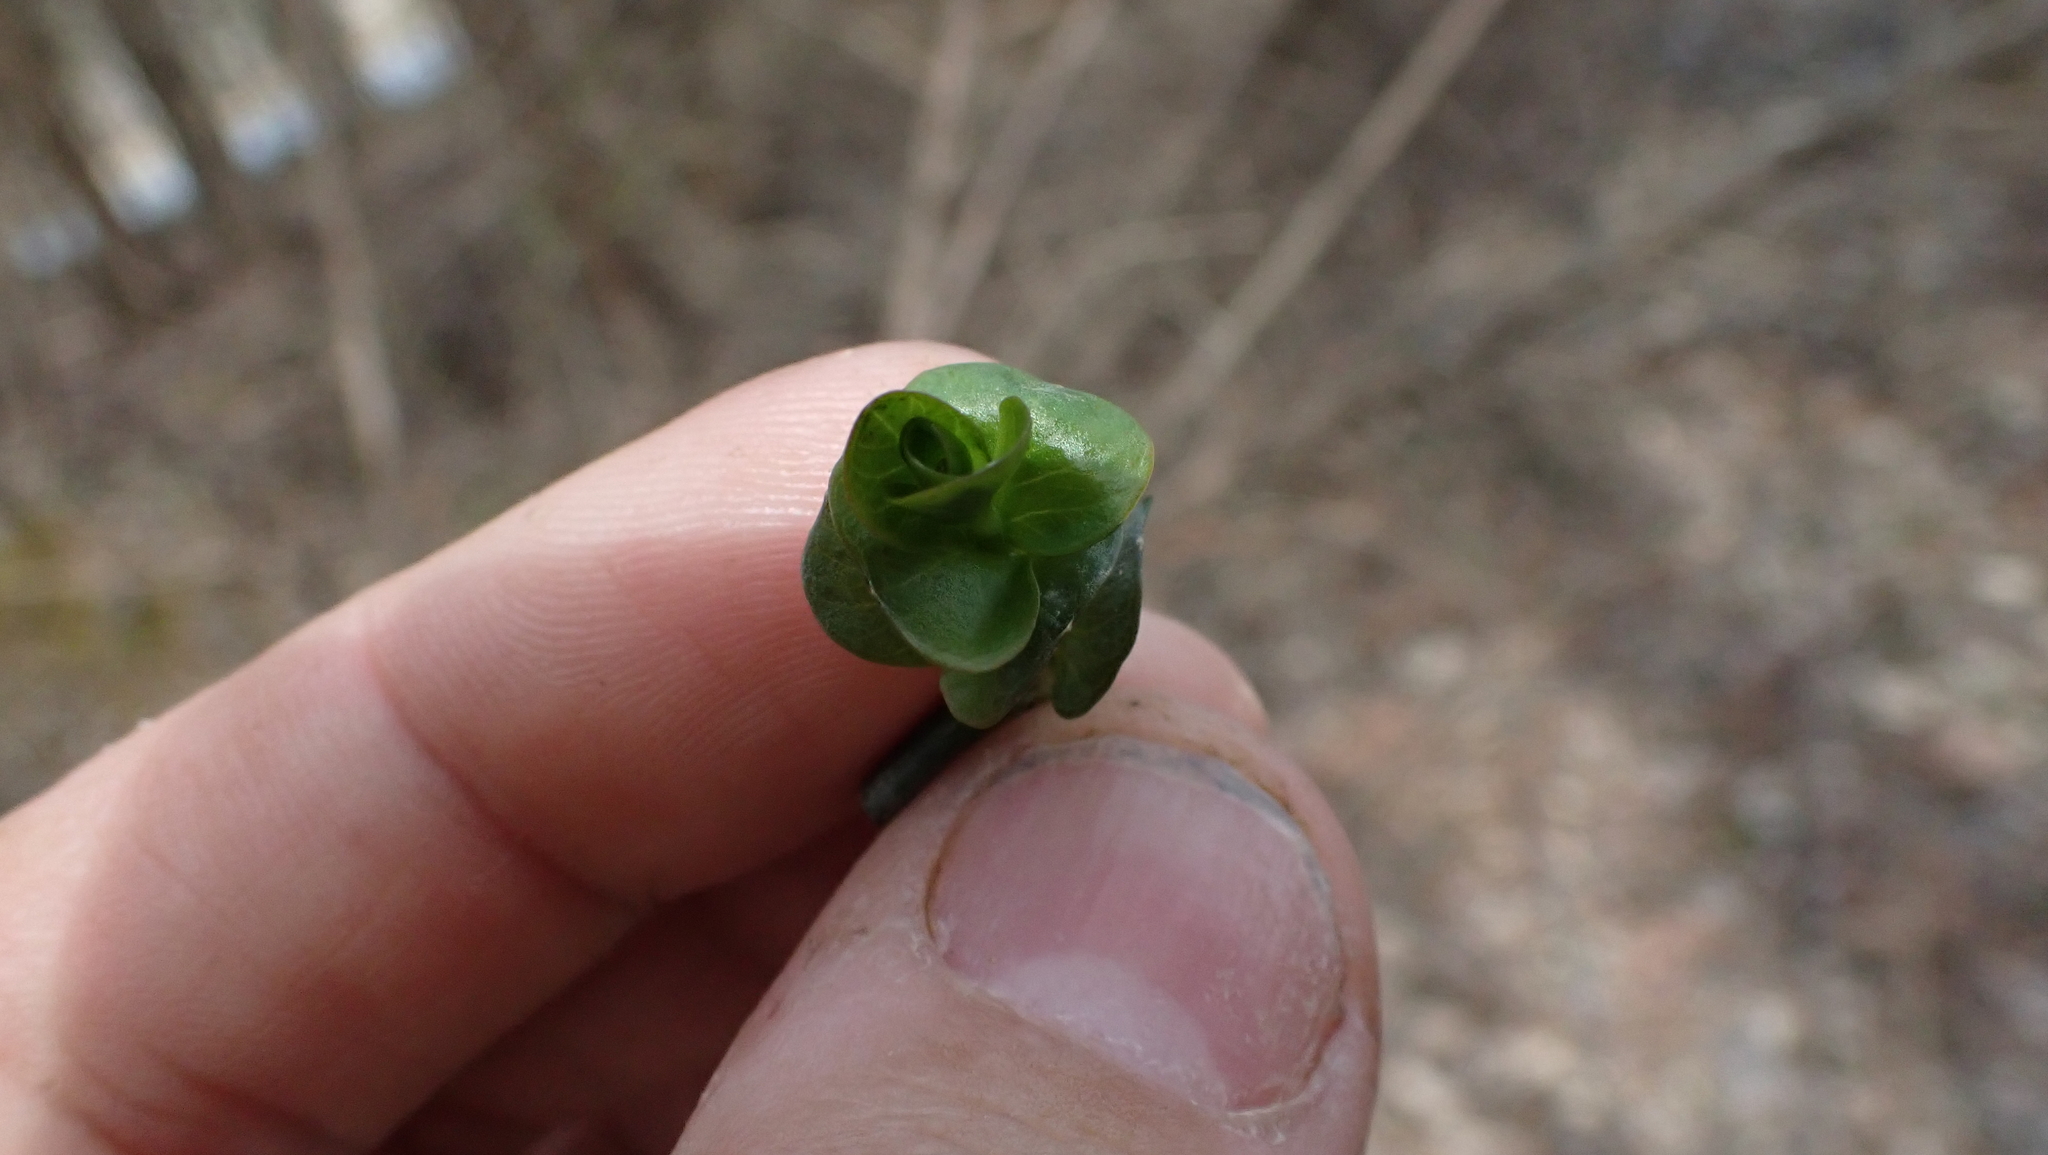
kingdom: Plantae
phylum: Tracheophyta
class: Magnoliopsida
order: Ericales
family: Primulaceae
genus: Lysimachia
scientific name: Lysimachia nummularia
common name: Moneywort
